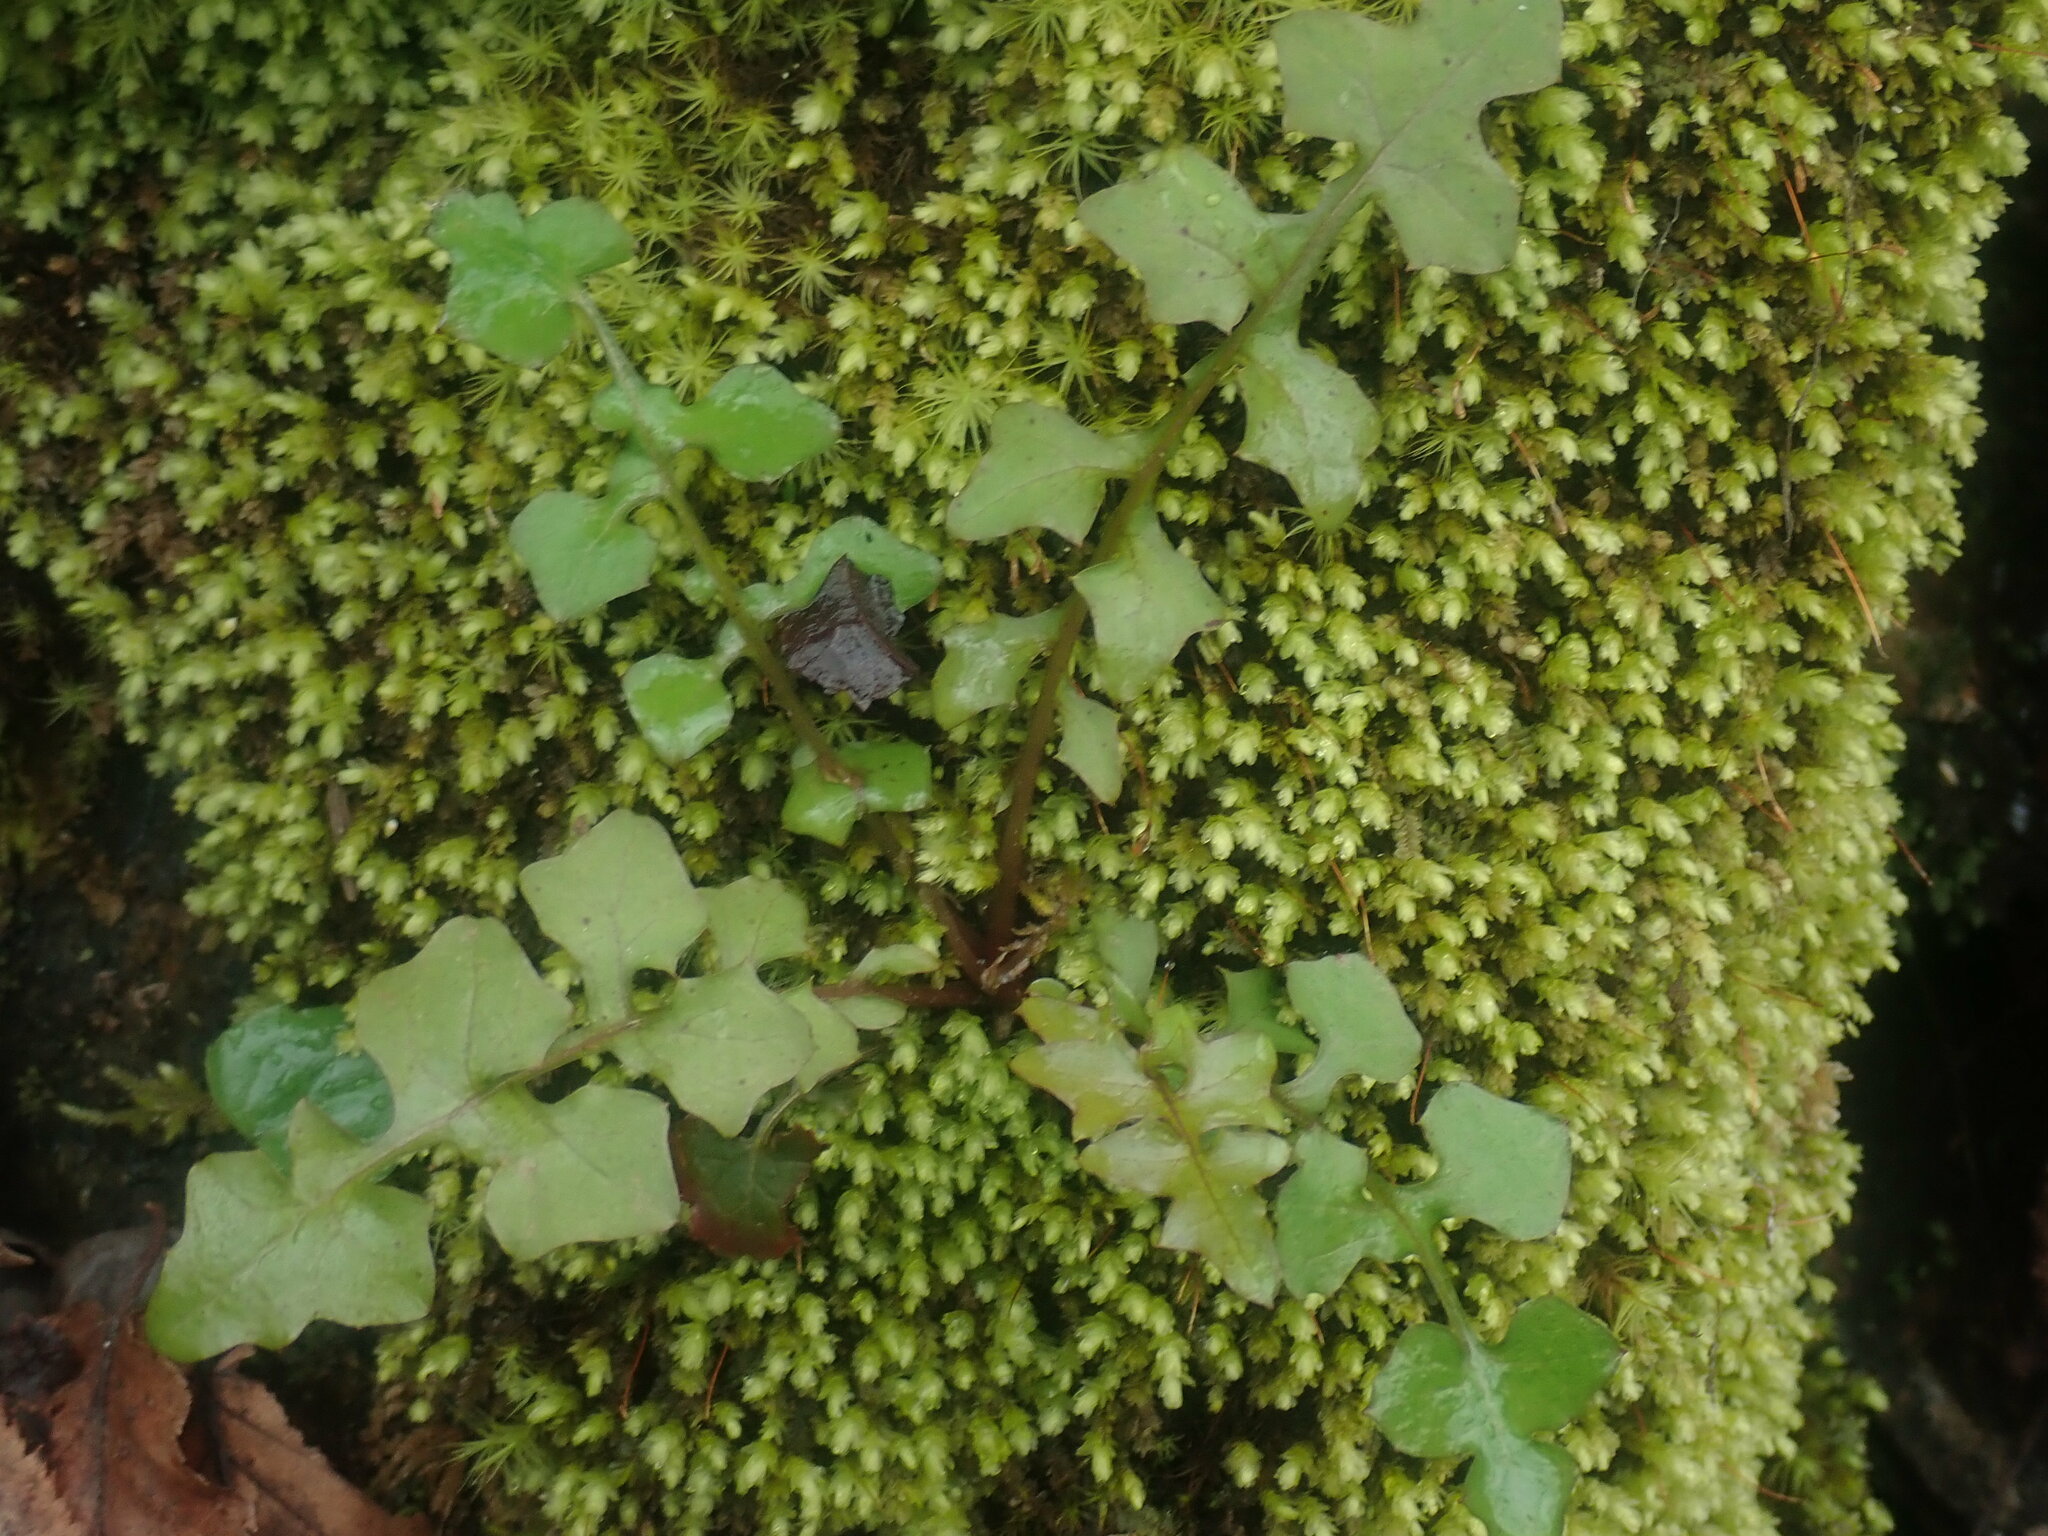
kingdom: Plantae
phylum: Tracheophyta
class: Magnoliopsida
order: Asterales
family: Asteraceae
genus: Mycelis
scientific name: Mycelis muralis
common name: Wall lettuce
